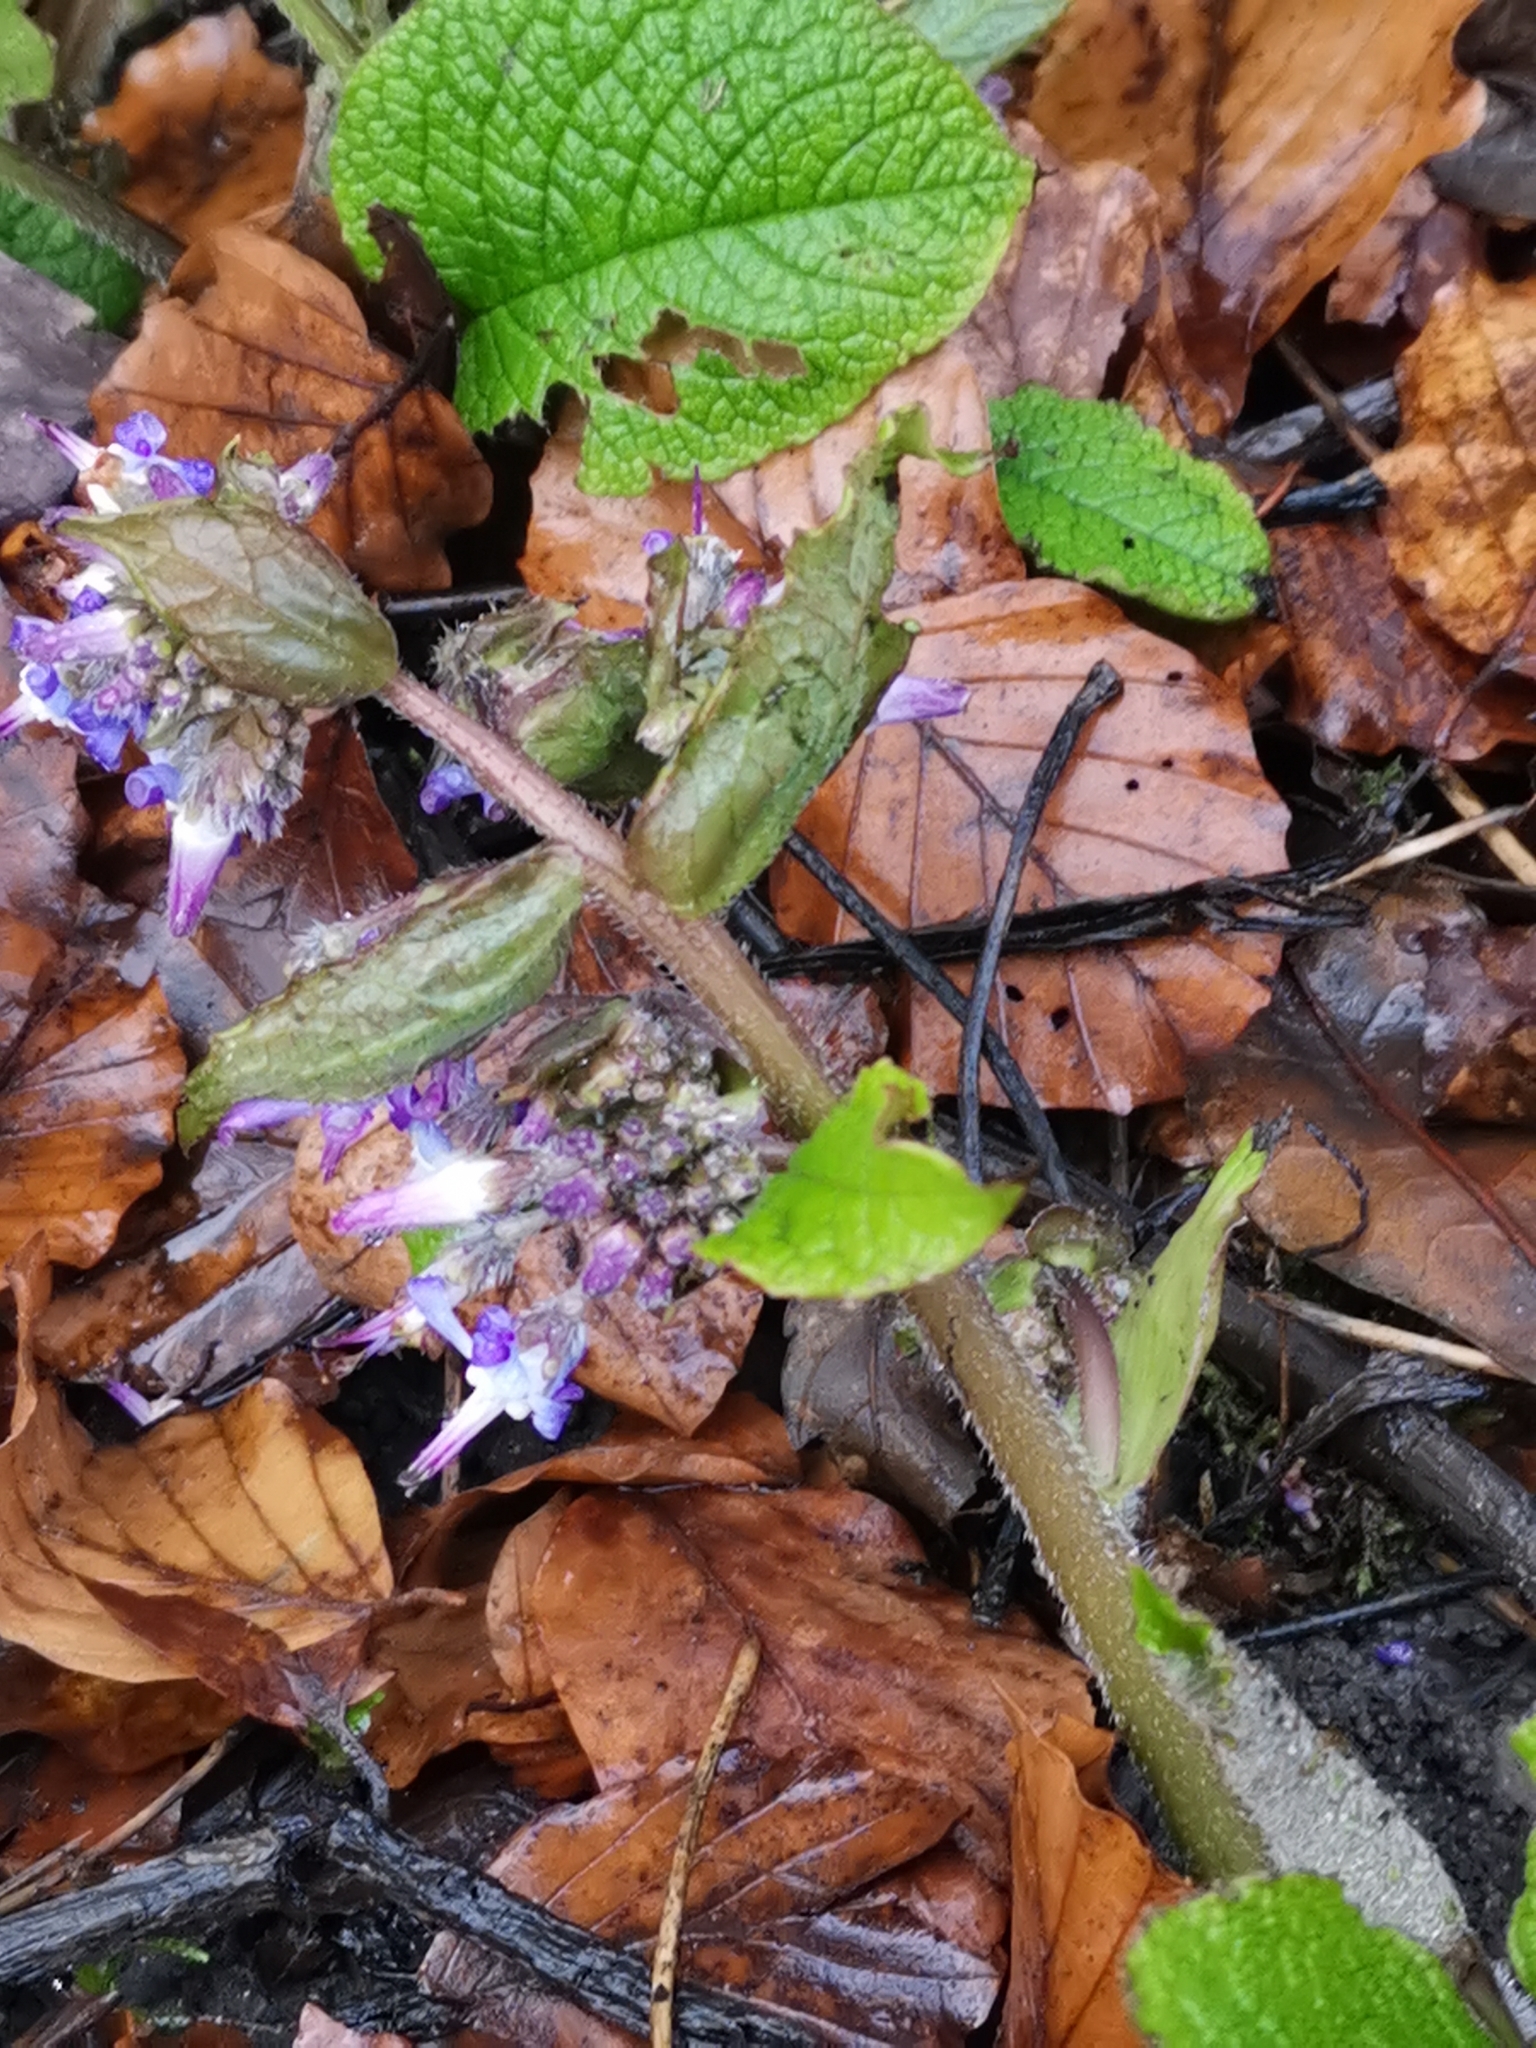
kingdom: Plantae
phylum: Tracheophyta
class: Magnoliopsida
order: Boraginales
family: Boraginaceae
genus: Trachystemon
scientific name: Trachystemon orientale
